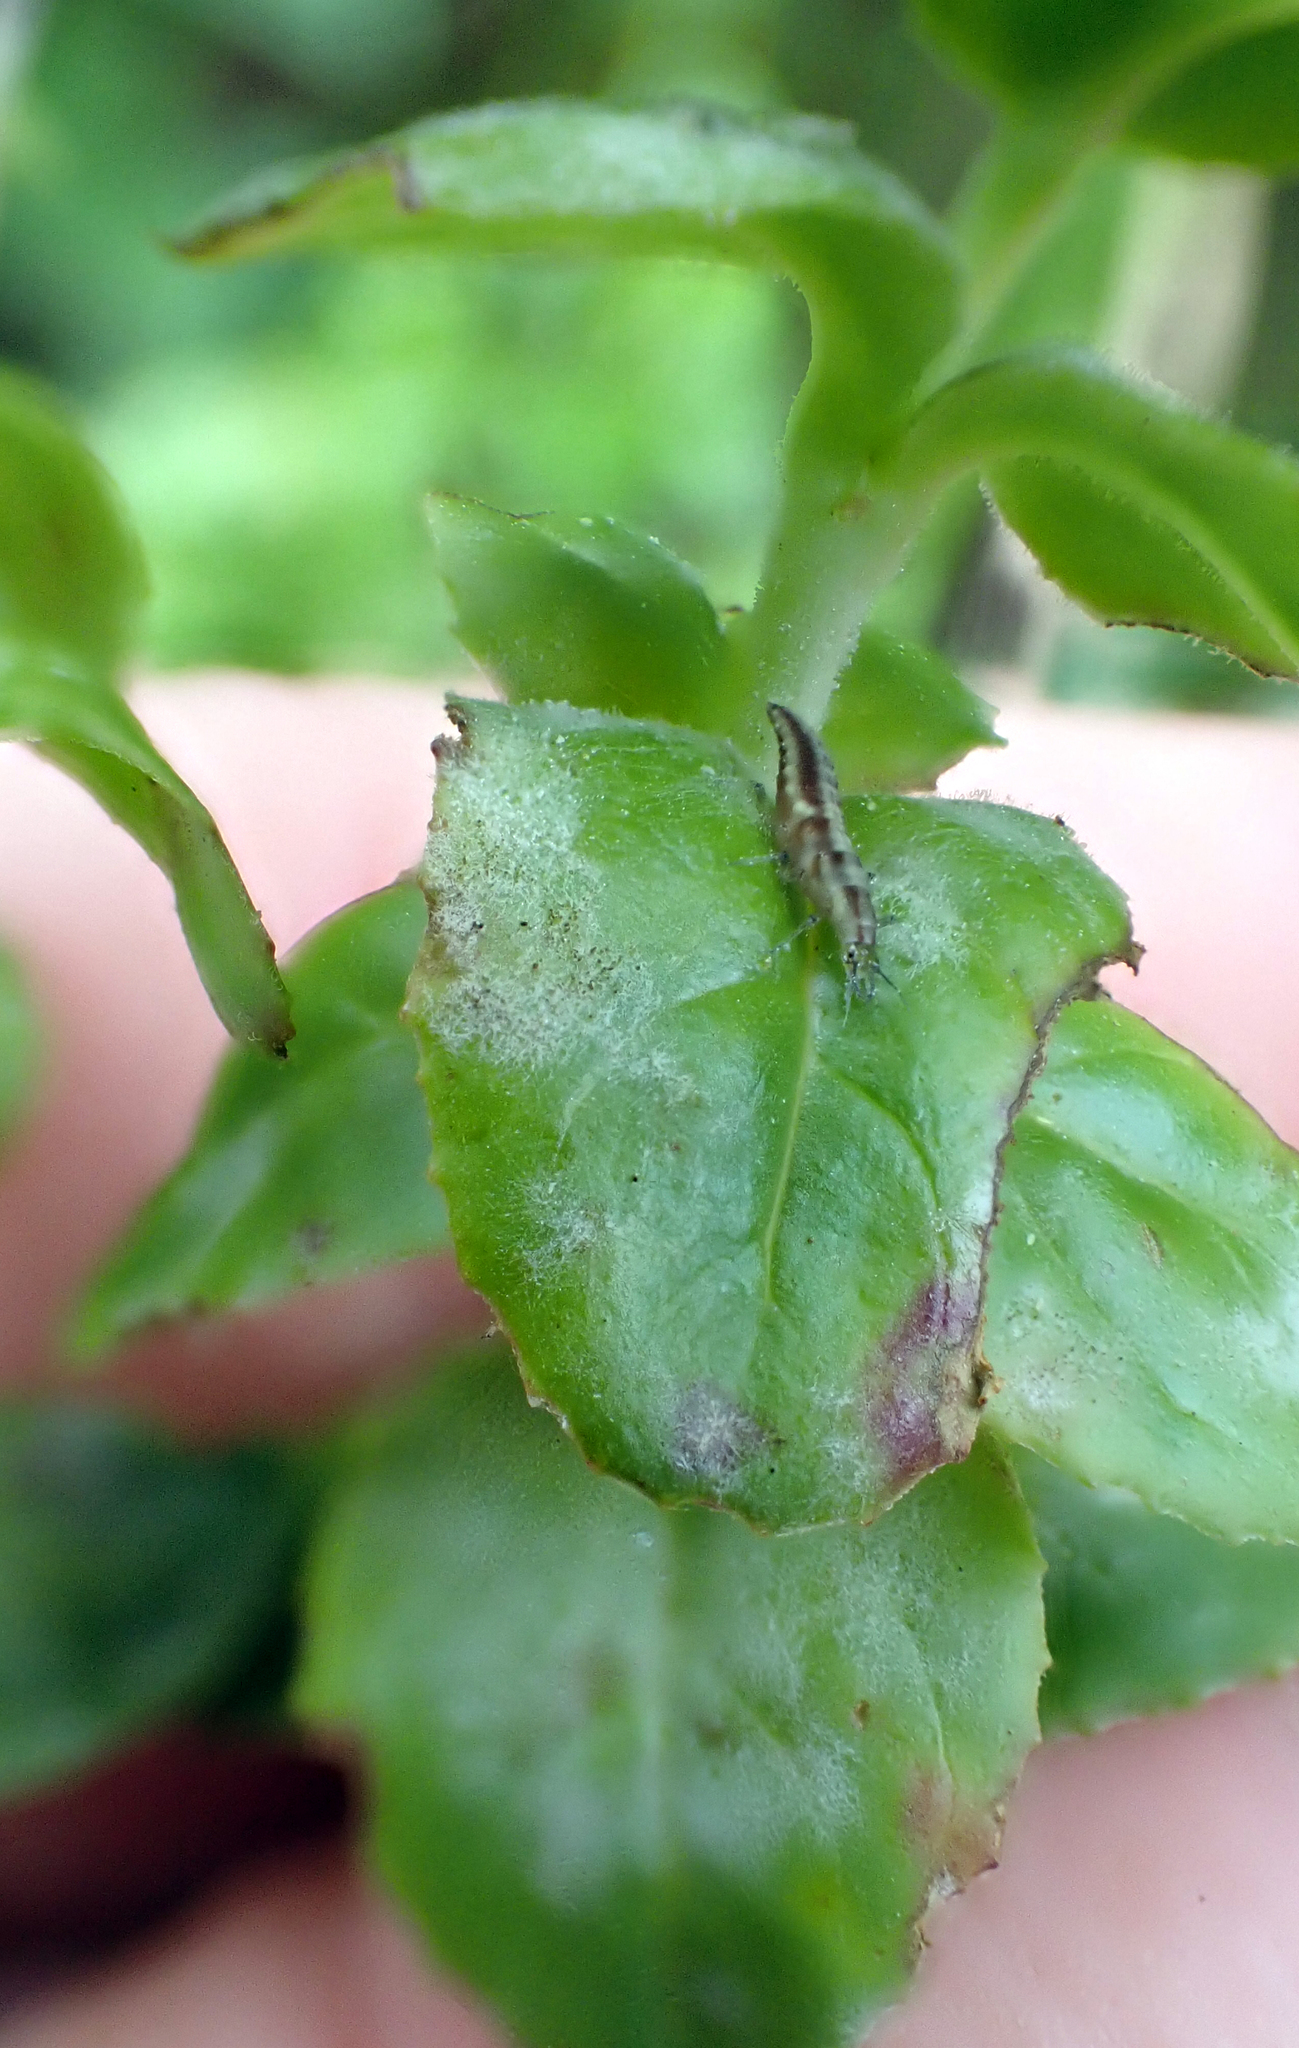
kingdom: Fungi
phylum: Ascomycota
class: Leotiomycetes
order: Helotiales
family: Erysiphaceae
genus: Podosphaera
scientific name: Podosphaera epilobii
